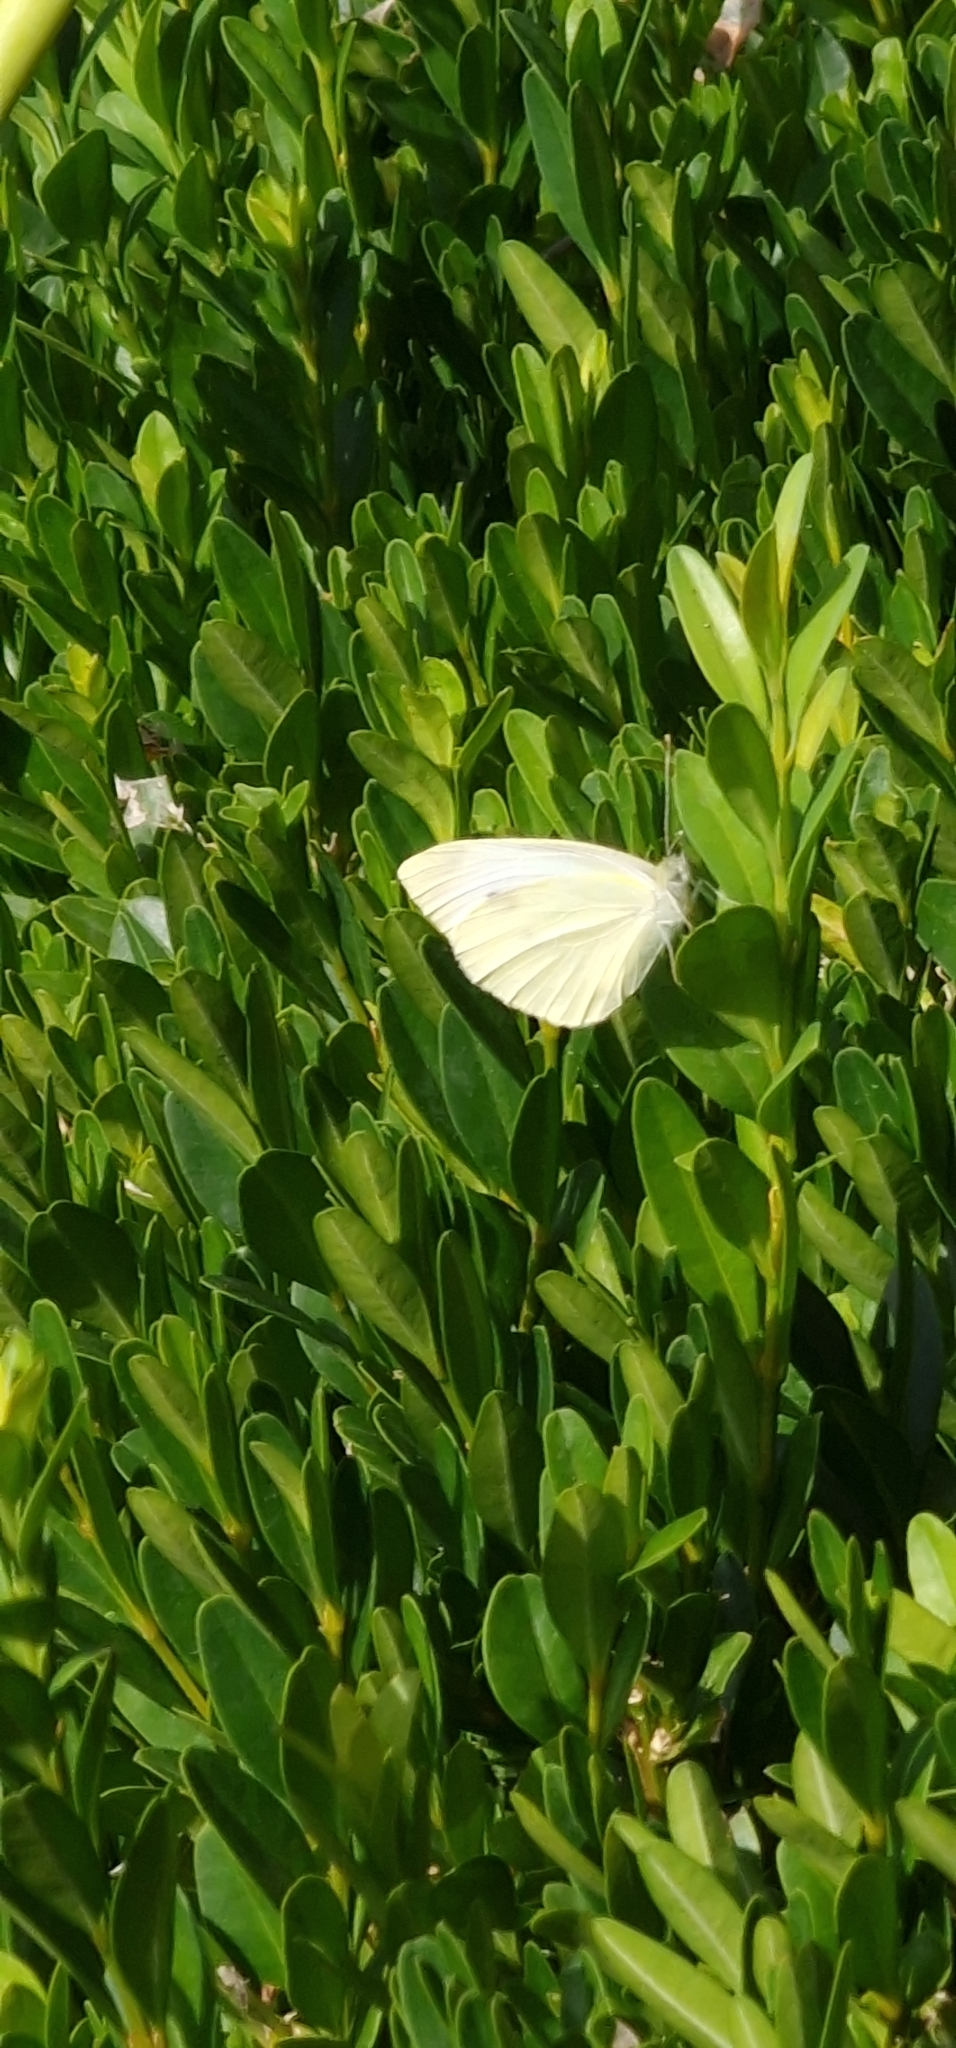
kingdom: Animalia
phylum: Arthropoda
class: Insecta
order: Lepidoptera
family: Pieridae
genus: Pieris
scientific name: Pieris rapae
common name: Small white
